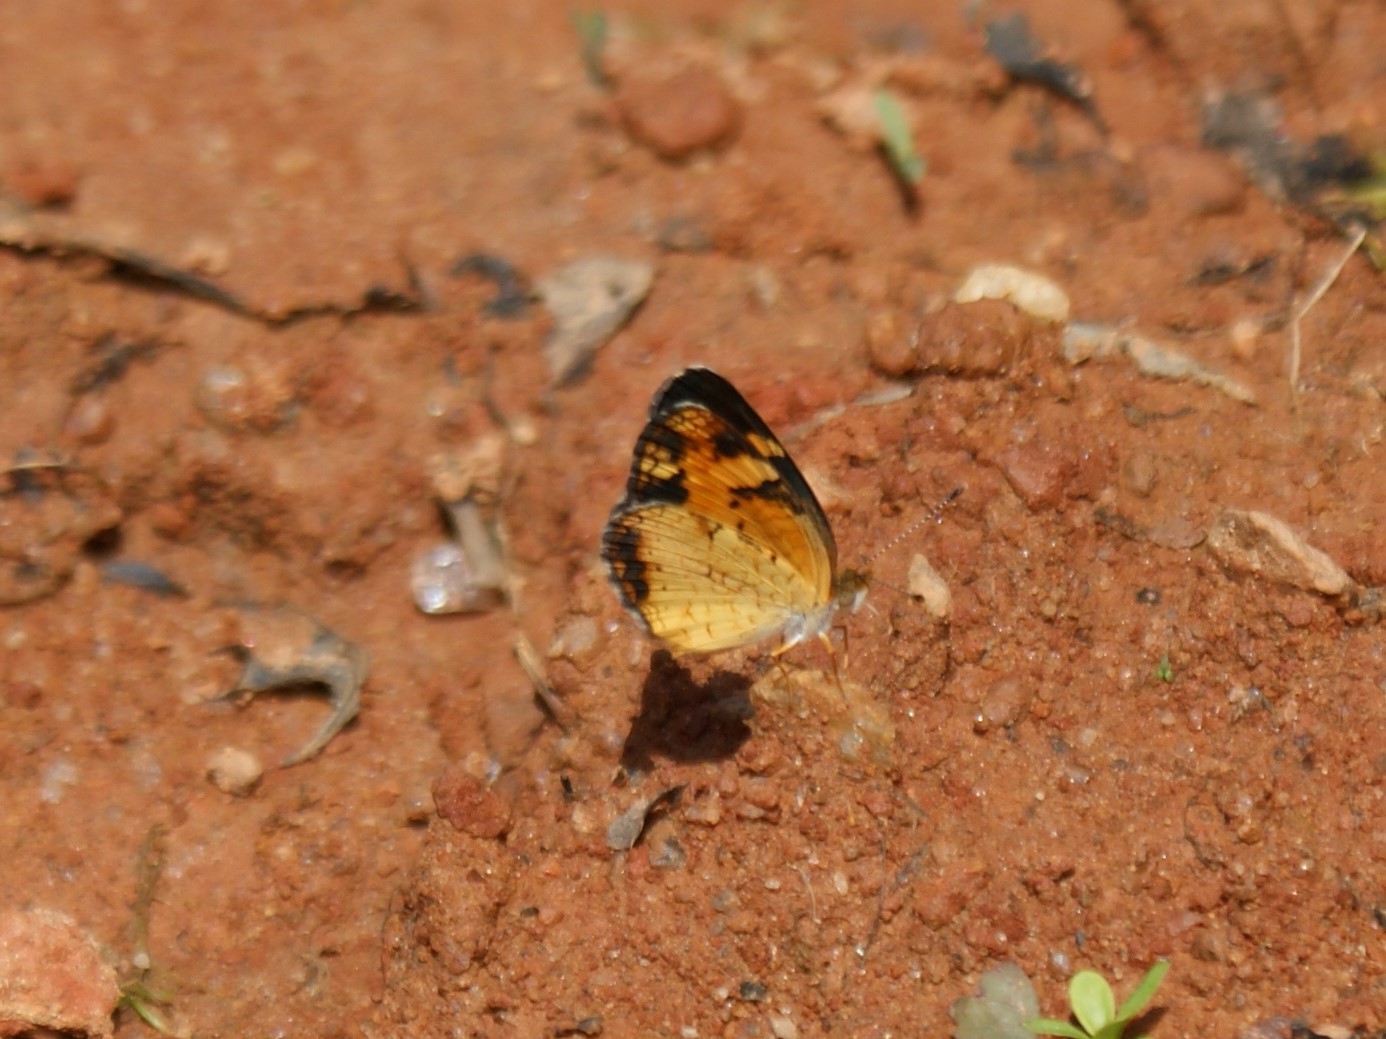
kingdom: Animalia
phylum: Arthropoda
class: Insecta
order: Lepidoptera
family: Nymphalidae
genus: Phyciodes
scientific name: Phyciodes tharos
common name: Pearl crescent
